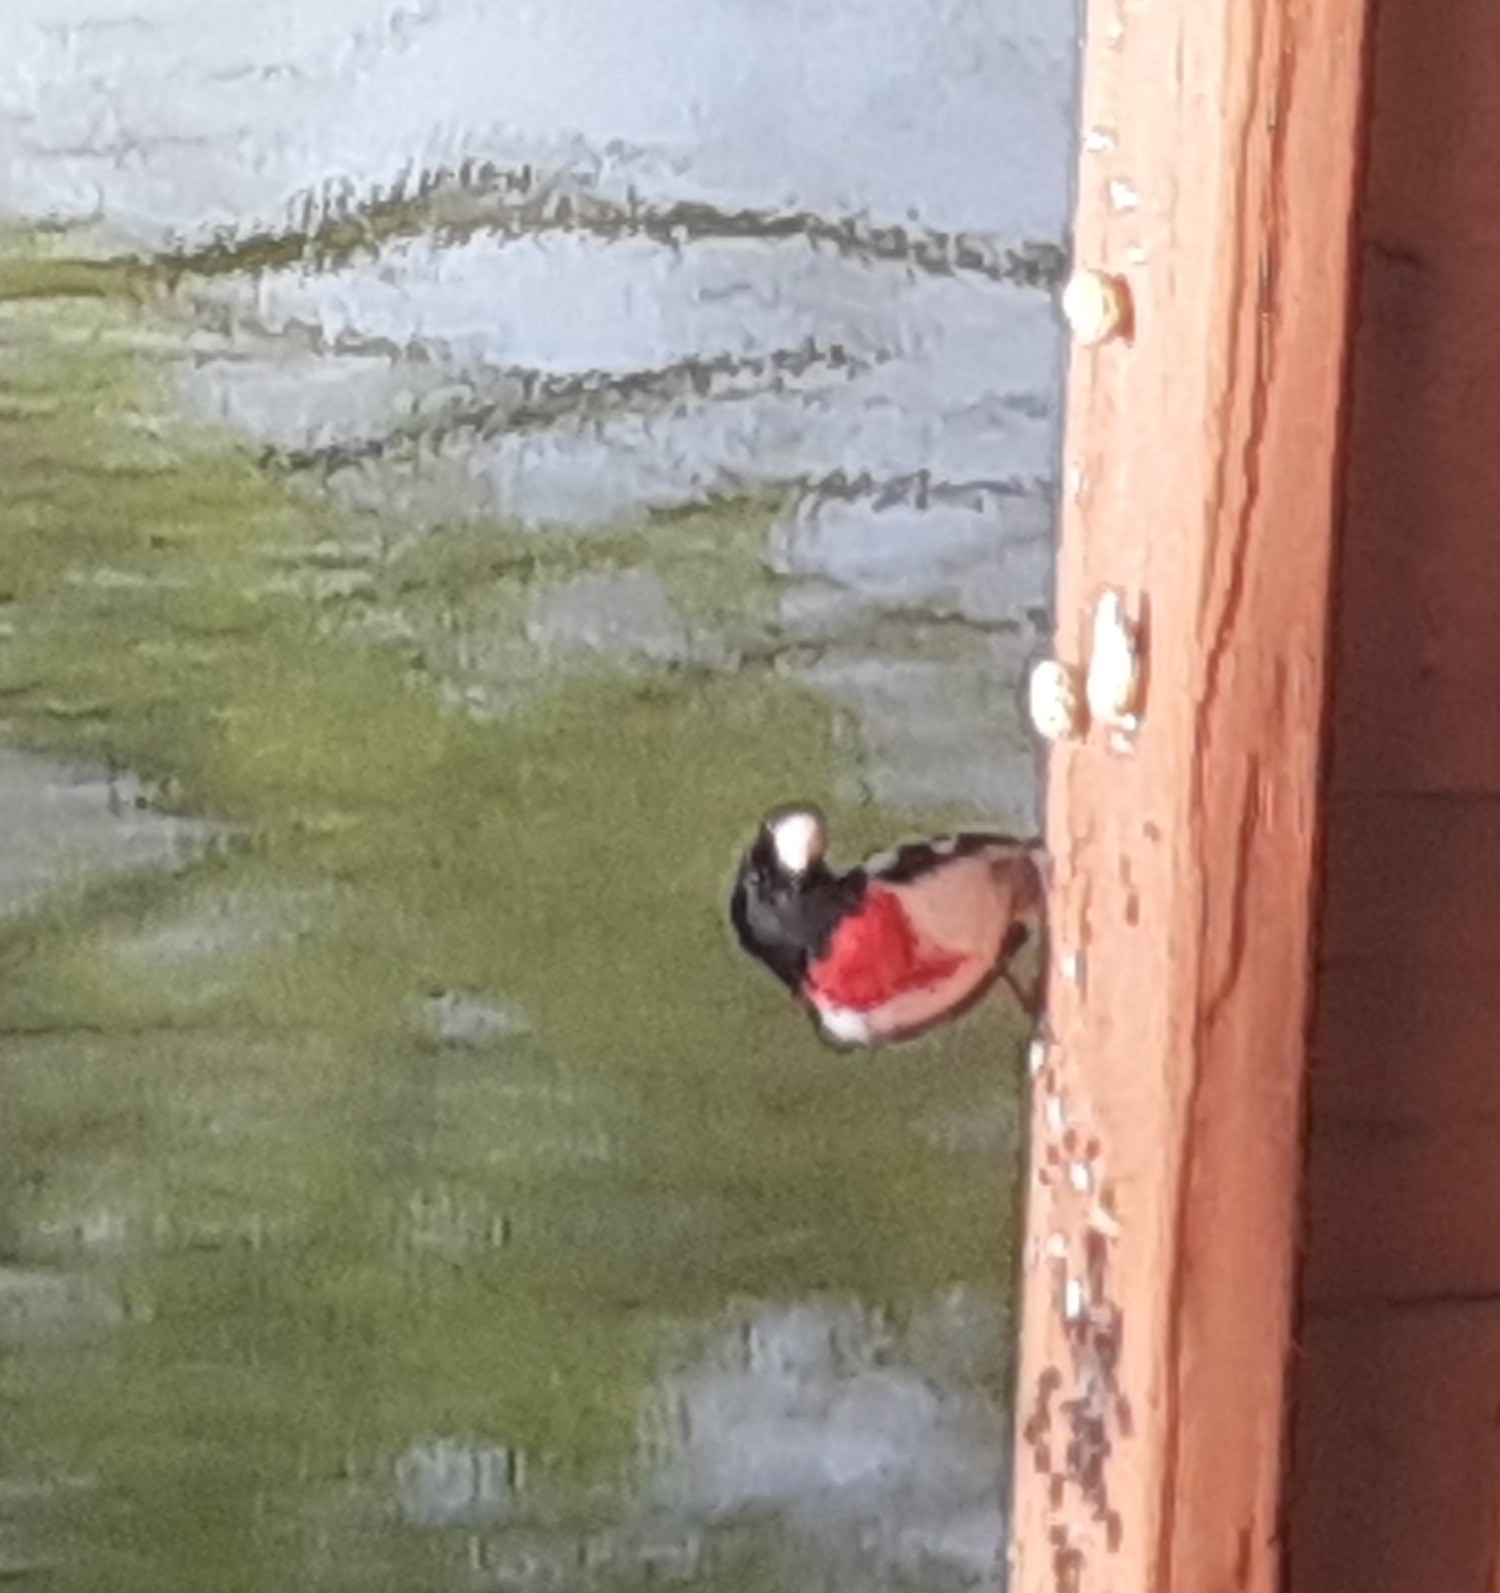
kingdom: Animalia
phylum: Chordata
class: Aves
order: Passeriformes
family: Cardinalidae
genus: Pheucticus
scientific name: Pheucticus ludovicianus
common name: Rose-breasted grosbeak
